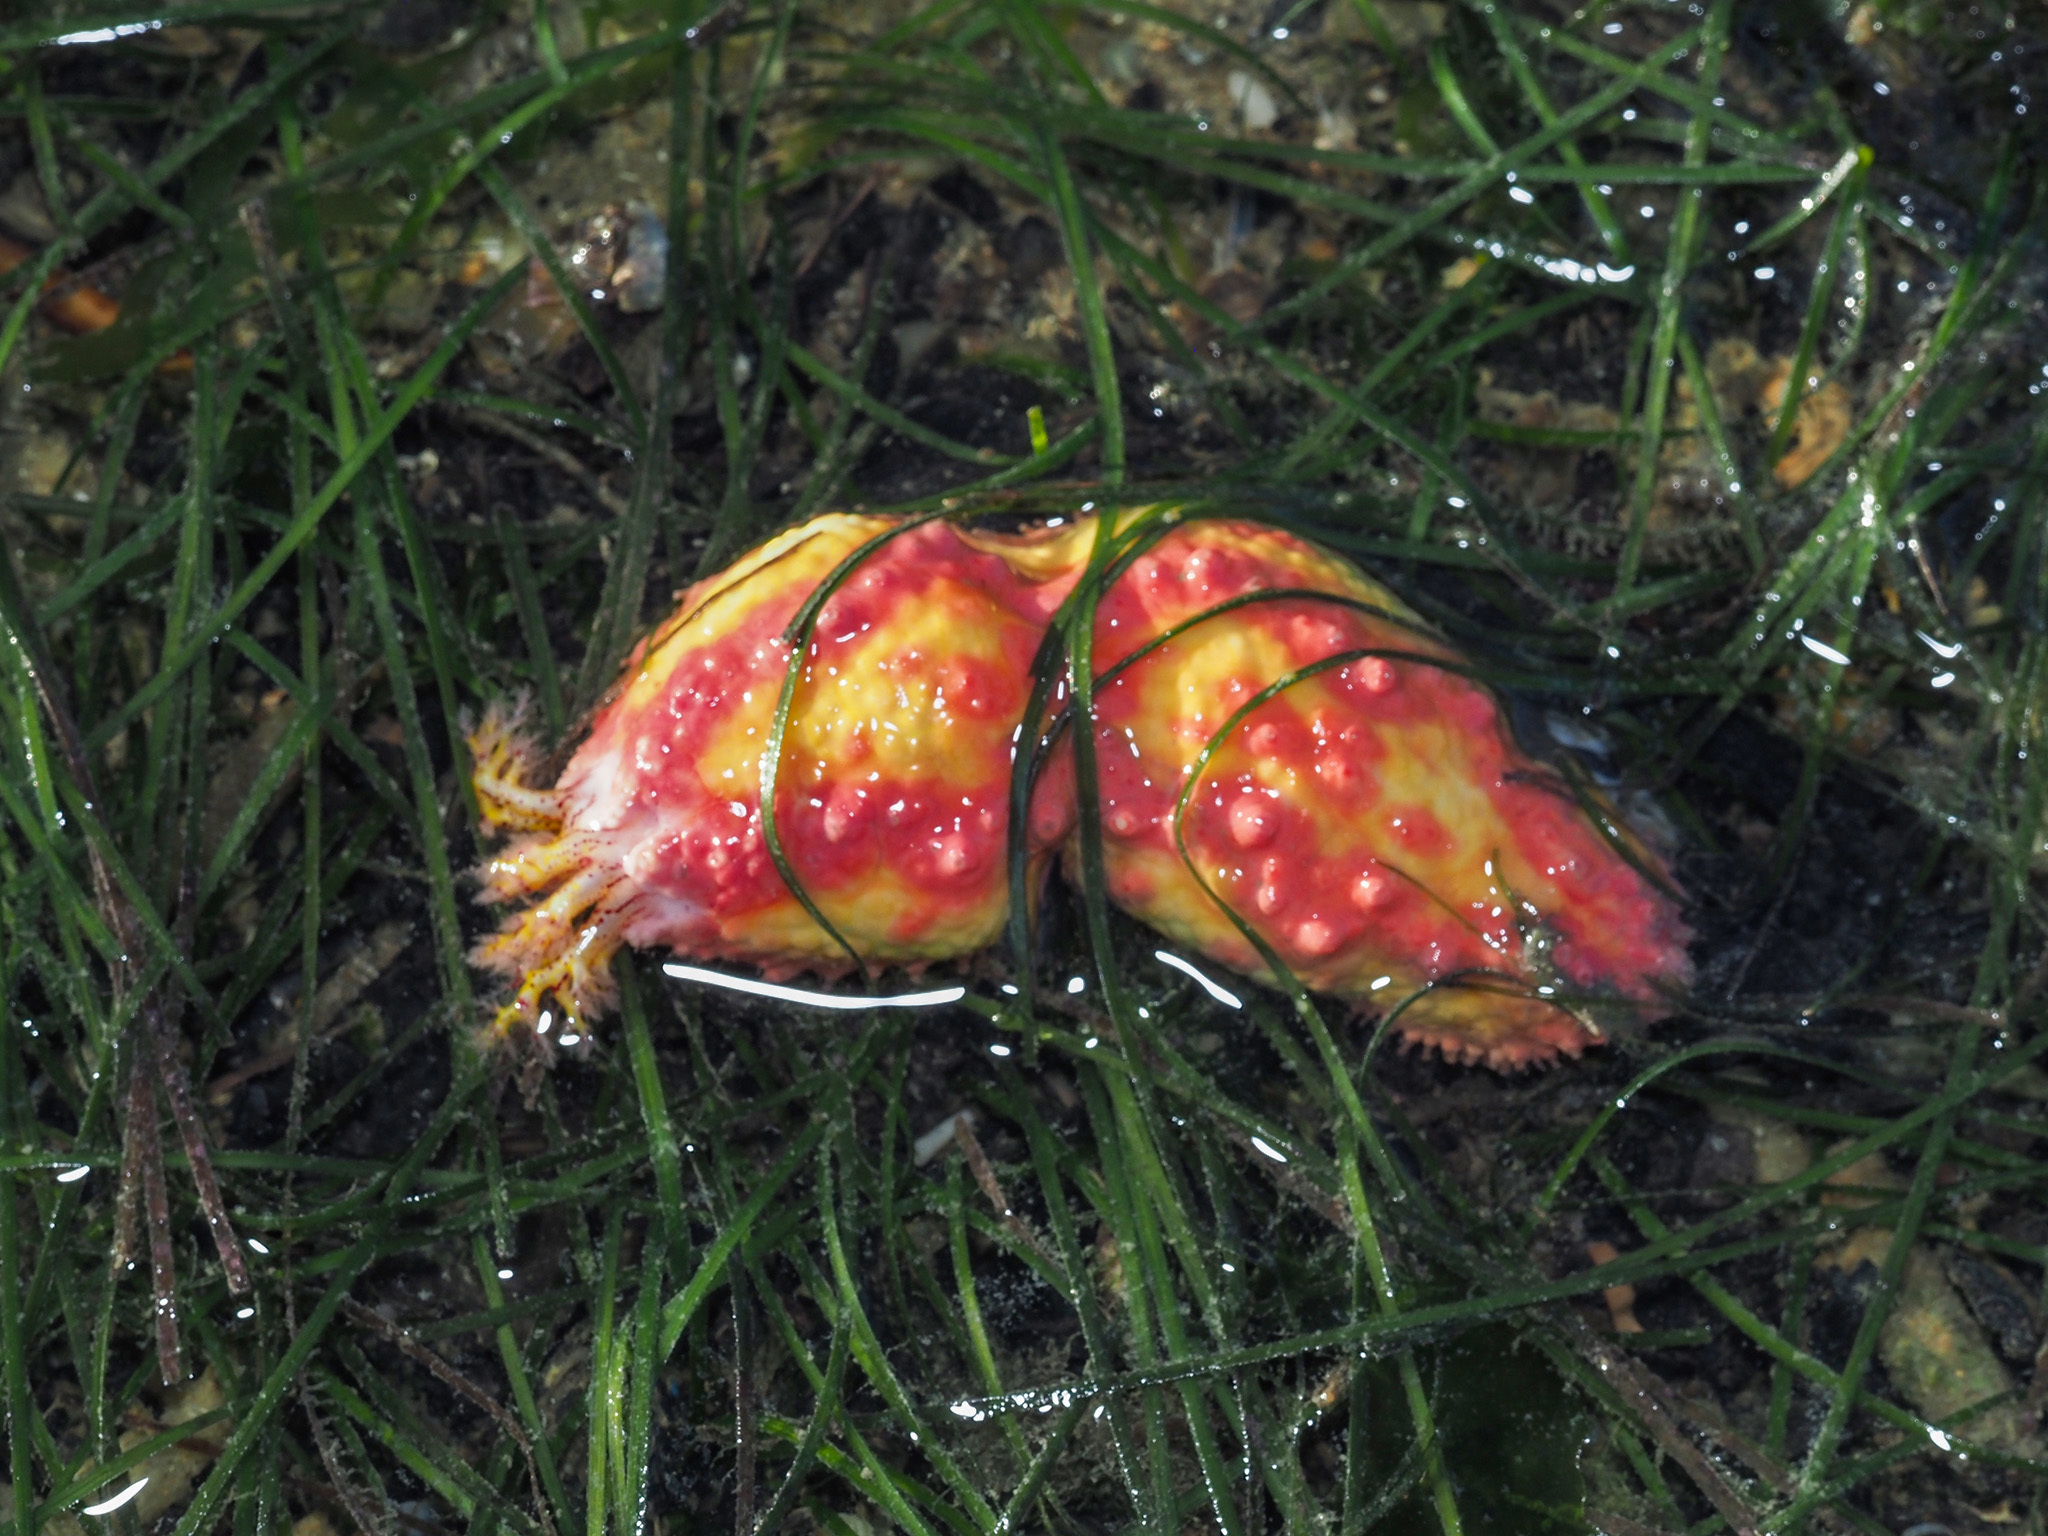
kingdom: Animalia
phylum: Echinodermata
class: Holothuroidea
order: Dendrochirotida
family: Cucumariidae
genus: Cercodemas
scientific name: Cercodemas anceps
